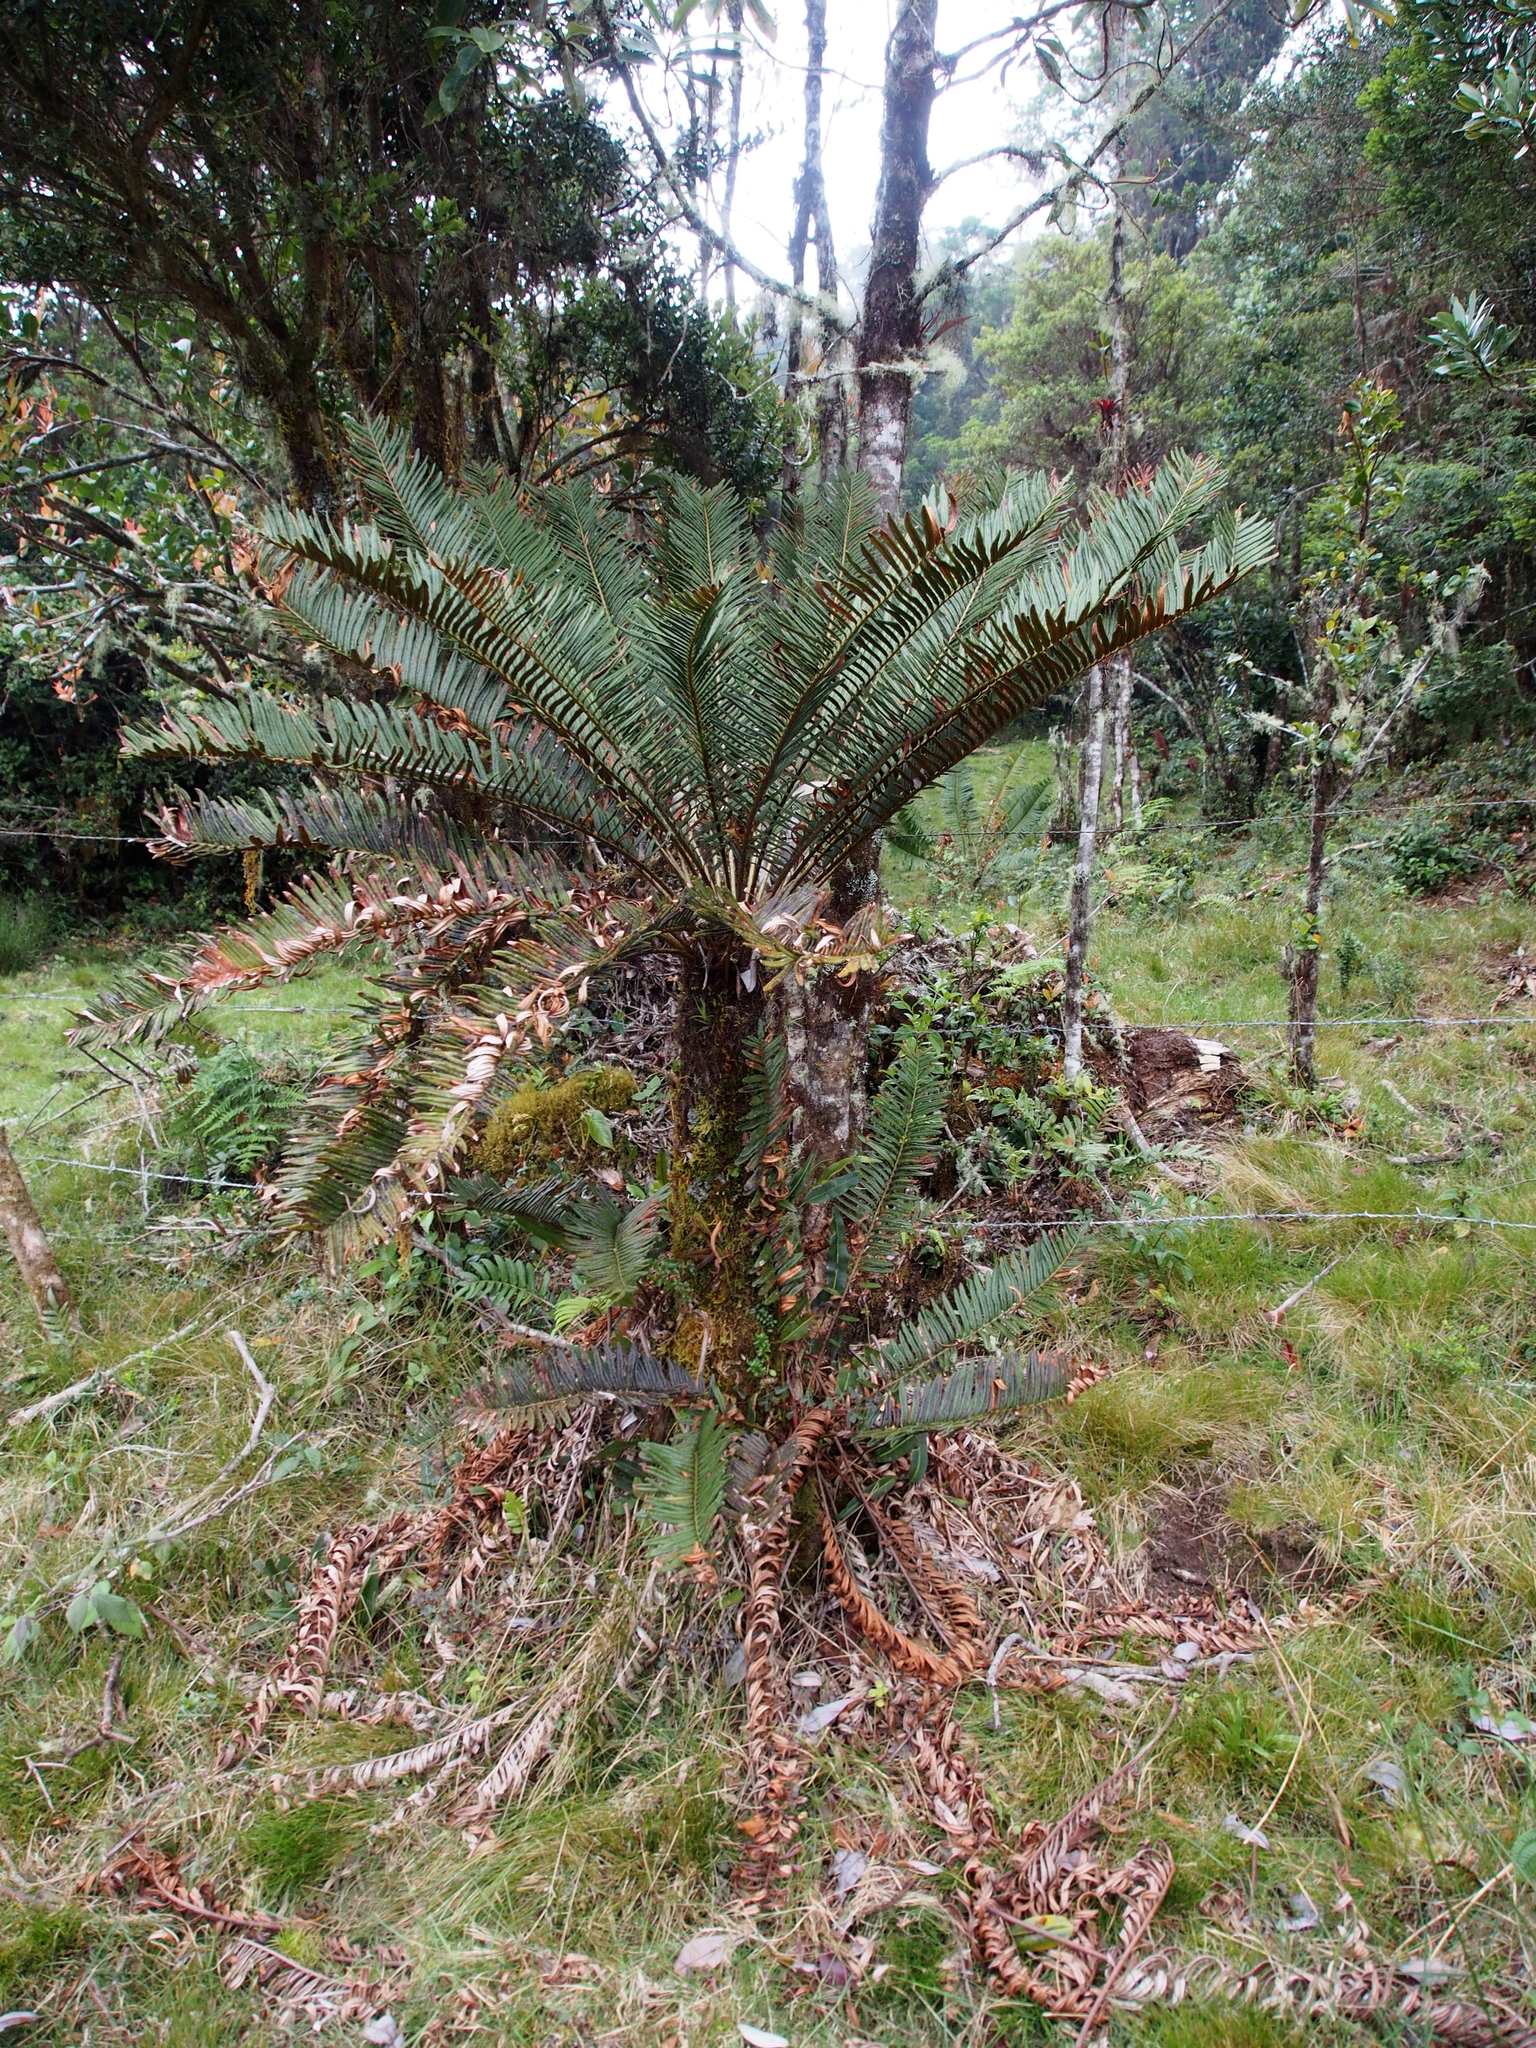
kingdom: Plantae
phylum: Tracheophyta
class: Polypodiopsida
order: Polypodiales
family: Blechnaceae
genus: Lomariocycas
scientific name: Lomariocycas aurata
